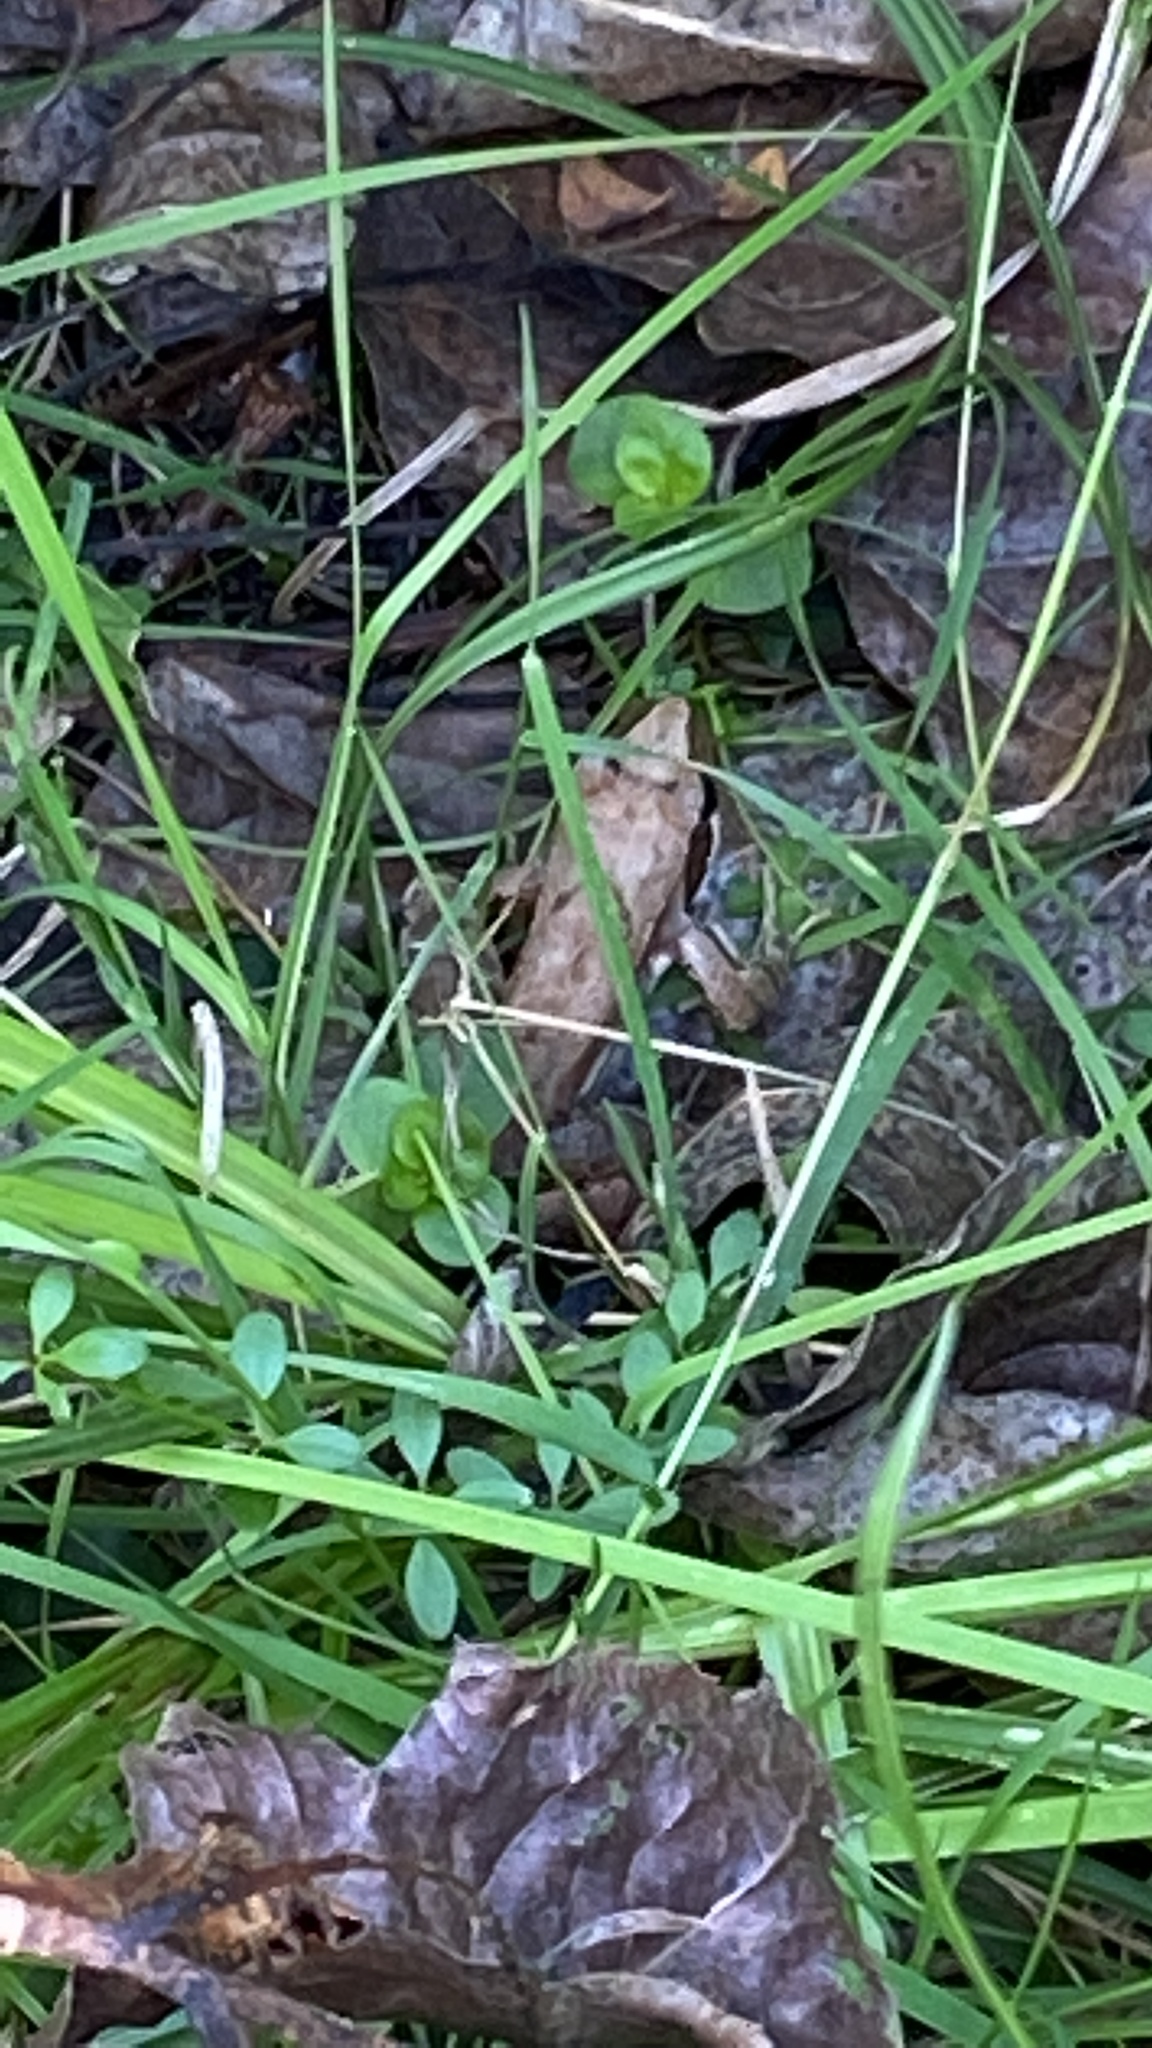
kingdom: Animalia
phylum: Chordata
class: Amphibia
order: Anura
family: Ranidae
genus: Rana
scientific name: Rana latastei
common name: Italian agile frog
